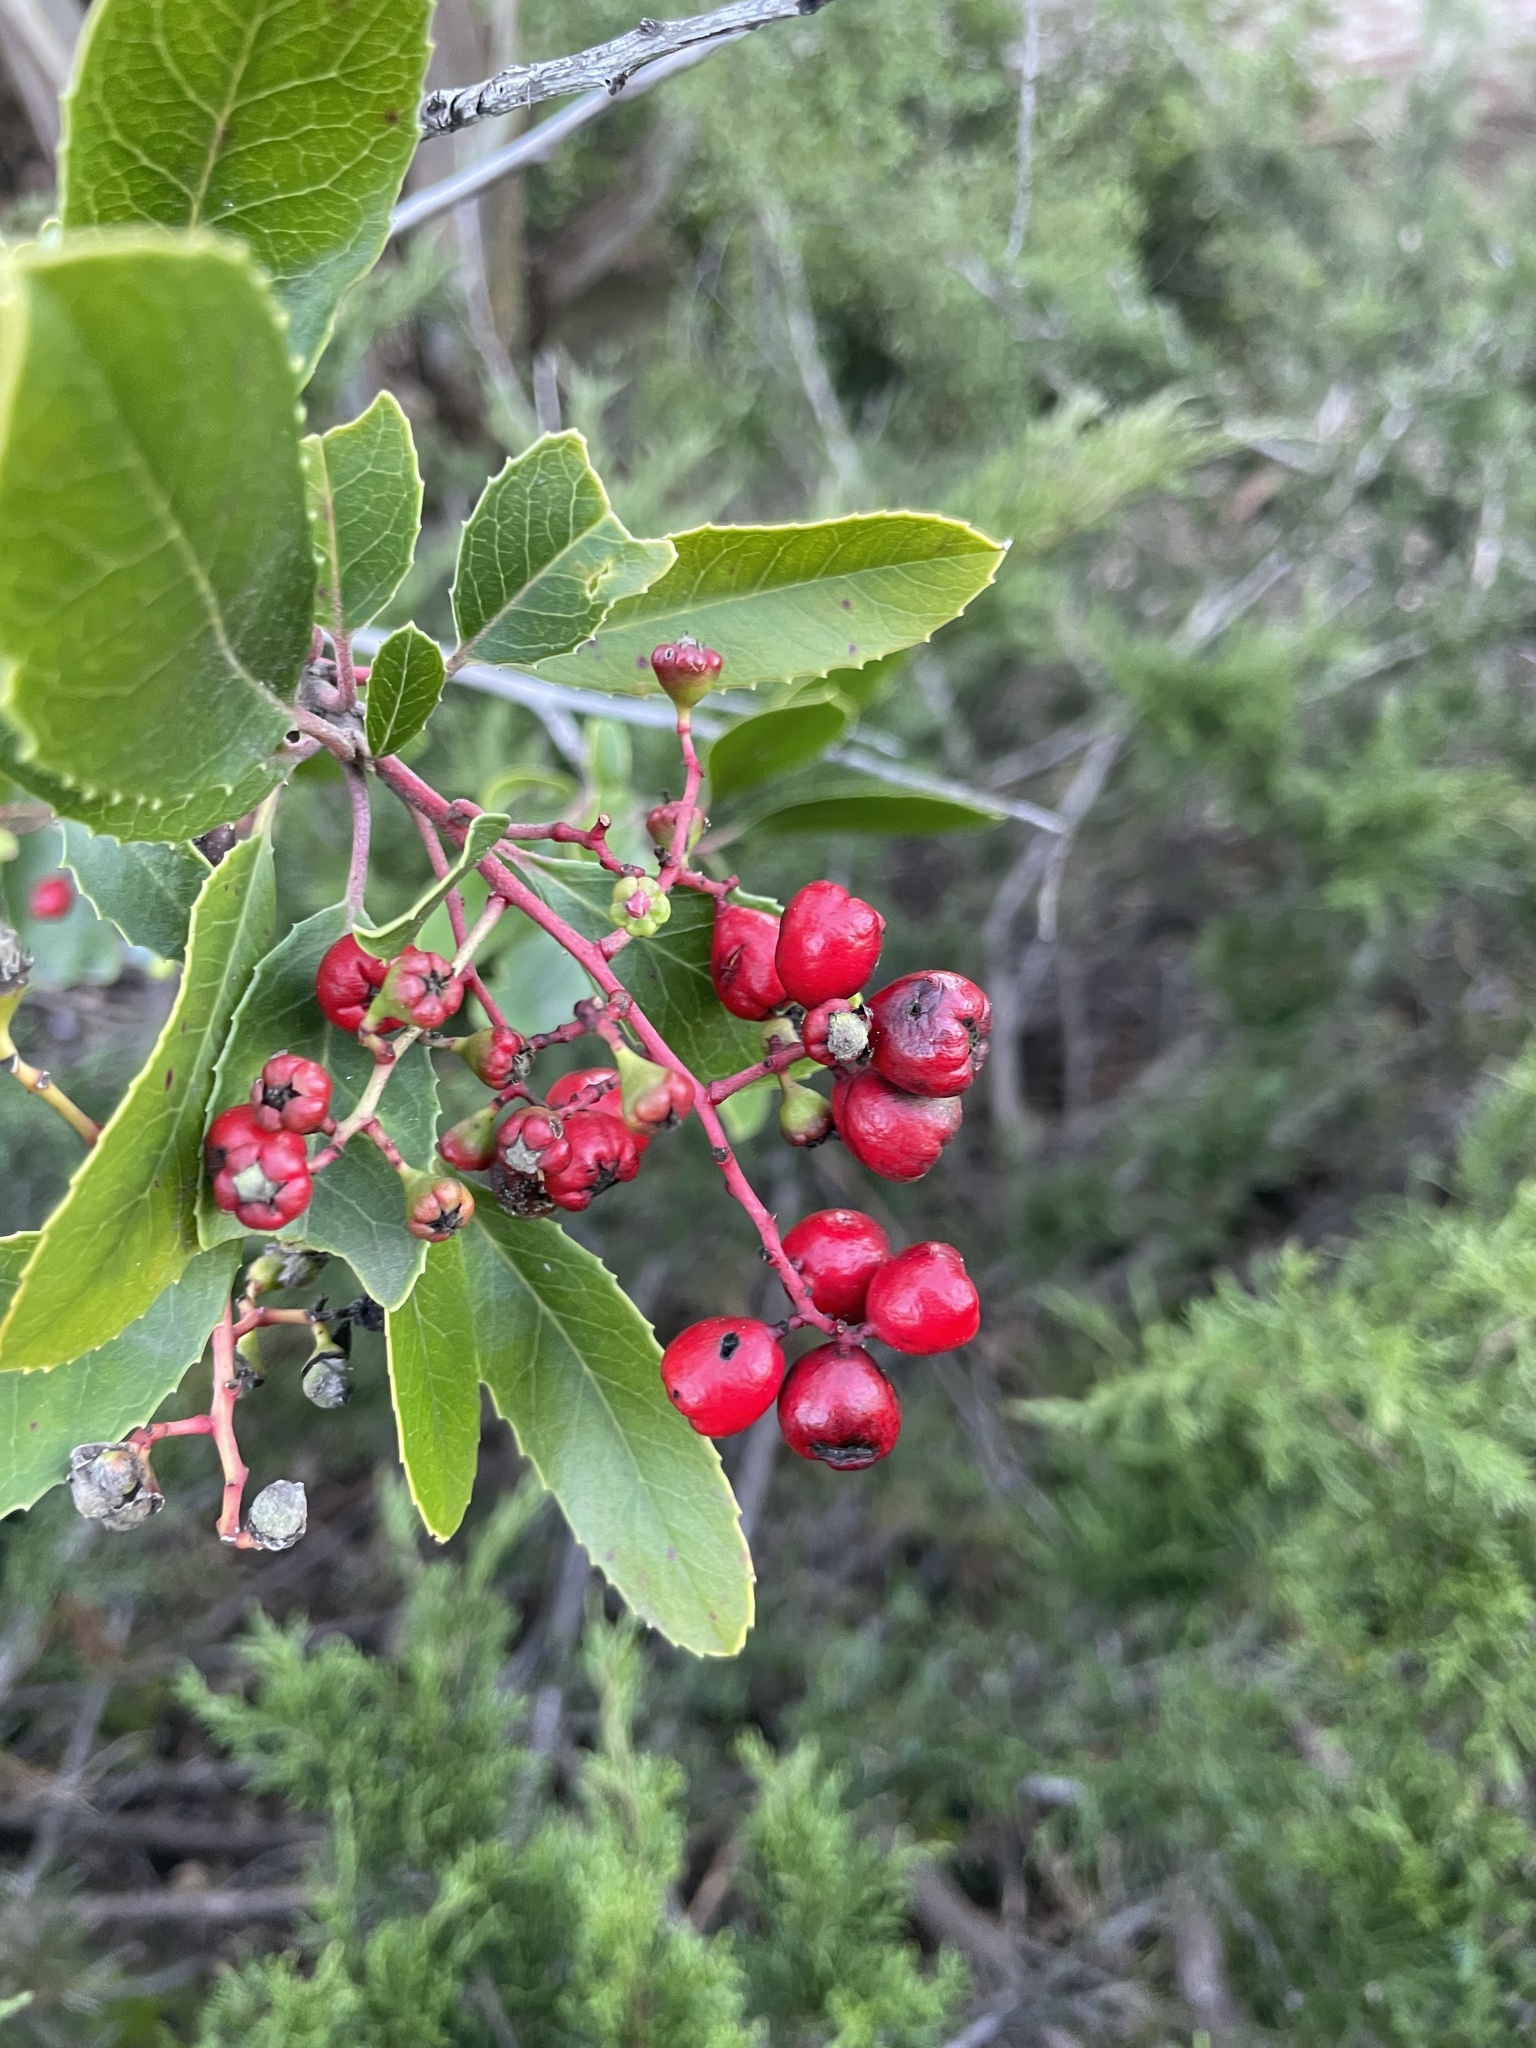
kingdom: Plantae
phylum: Tracheophyta
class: Magnoliopsida
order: Rosales
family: Rosaceae
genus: Heteromeles
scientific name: Heteromeles arbutifolia
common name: California-holly
